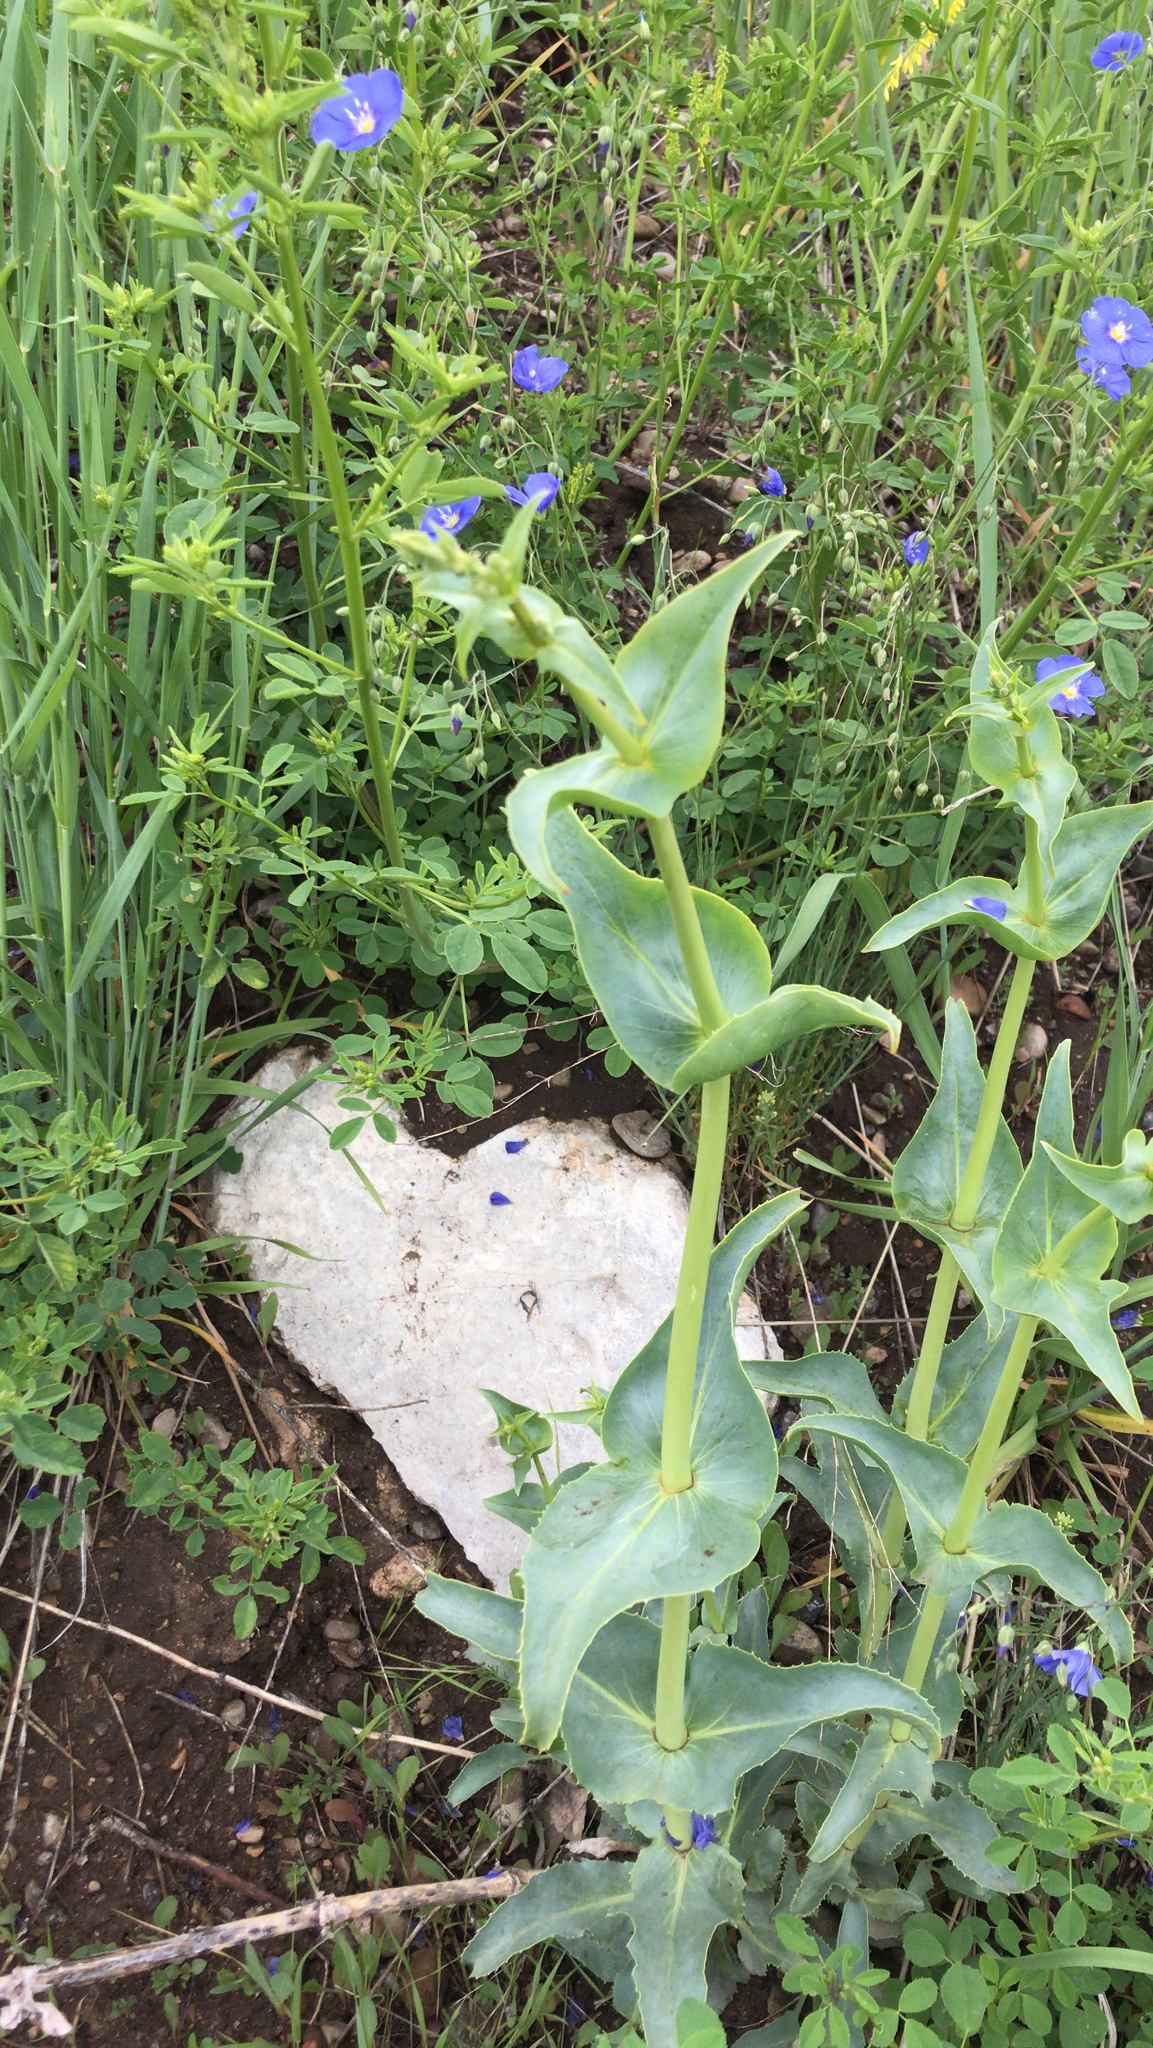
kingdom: Plantae
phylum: Tracheophyta
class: Magnoliopsida
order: Lamiales
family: Plantaginaceae
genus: Penstemon
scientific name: Penstemon palmeri
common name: Palmer penstemon
